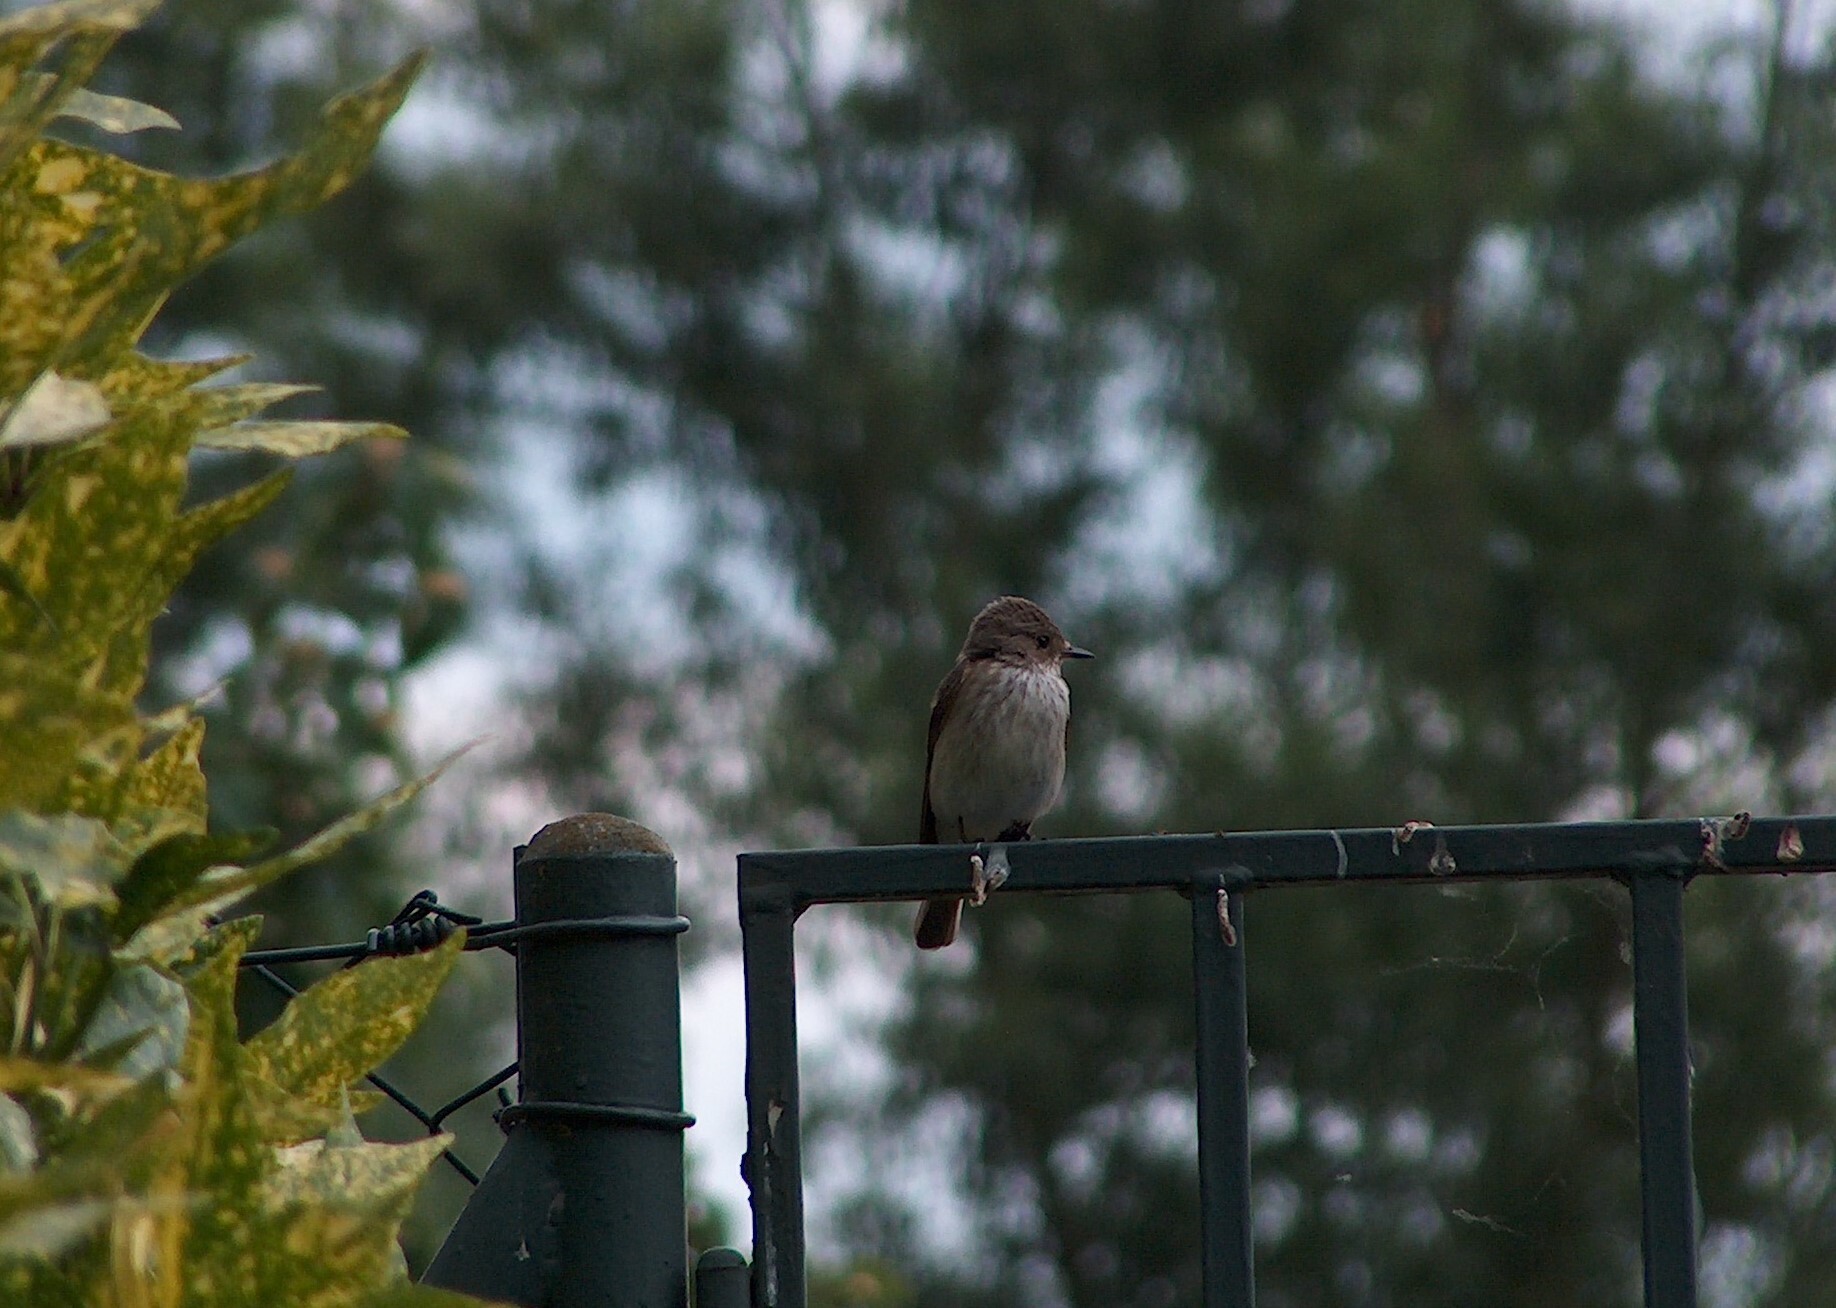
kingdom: Animalia
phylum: Chordata
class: Aves
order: Passeriformes
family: Muscicapidae
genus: Muscicapa
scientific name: Muscicapa striata
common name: Spotted flycatcher
